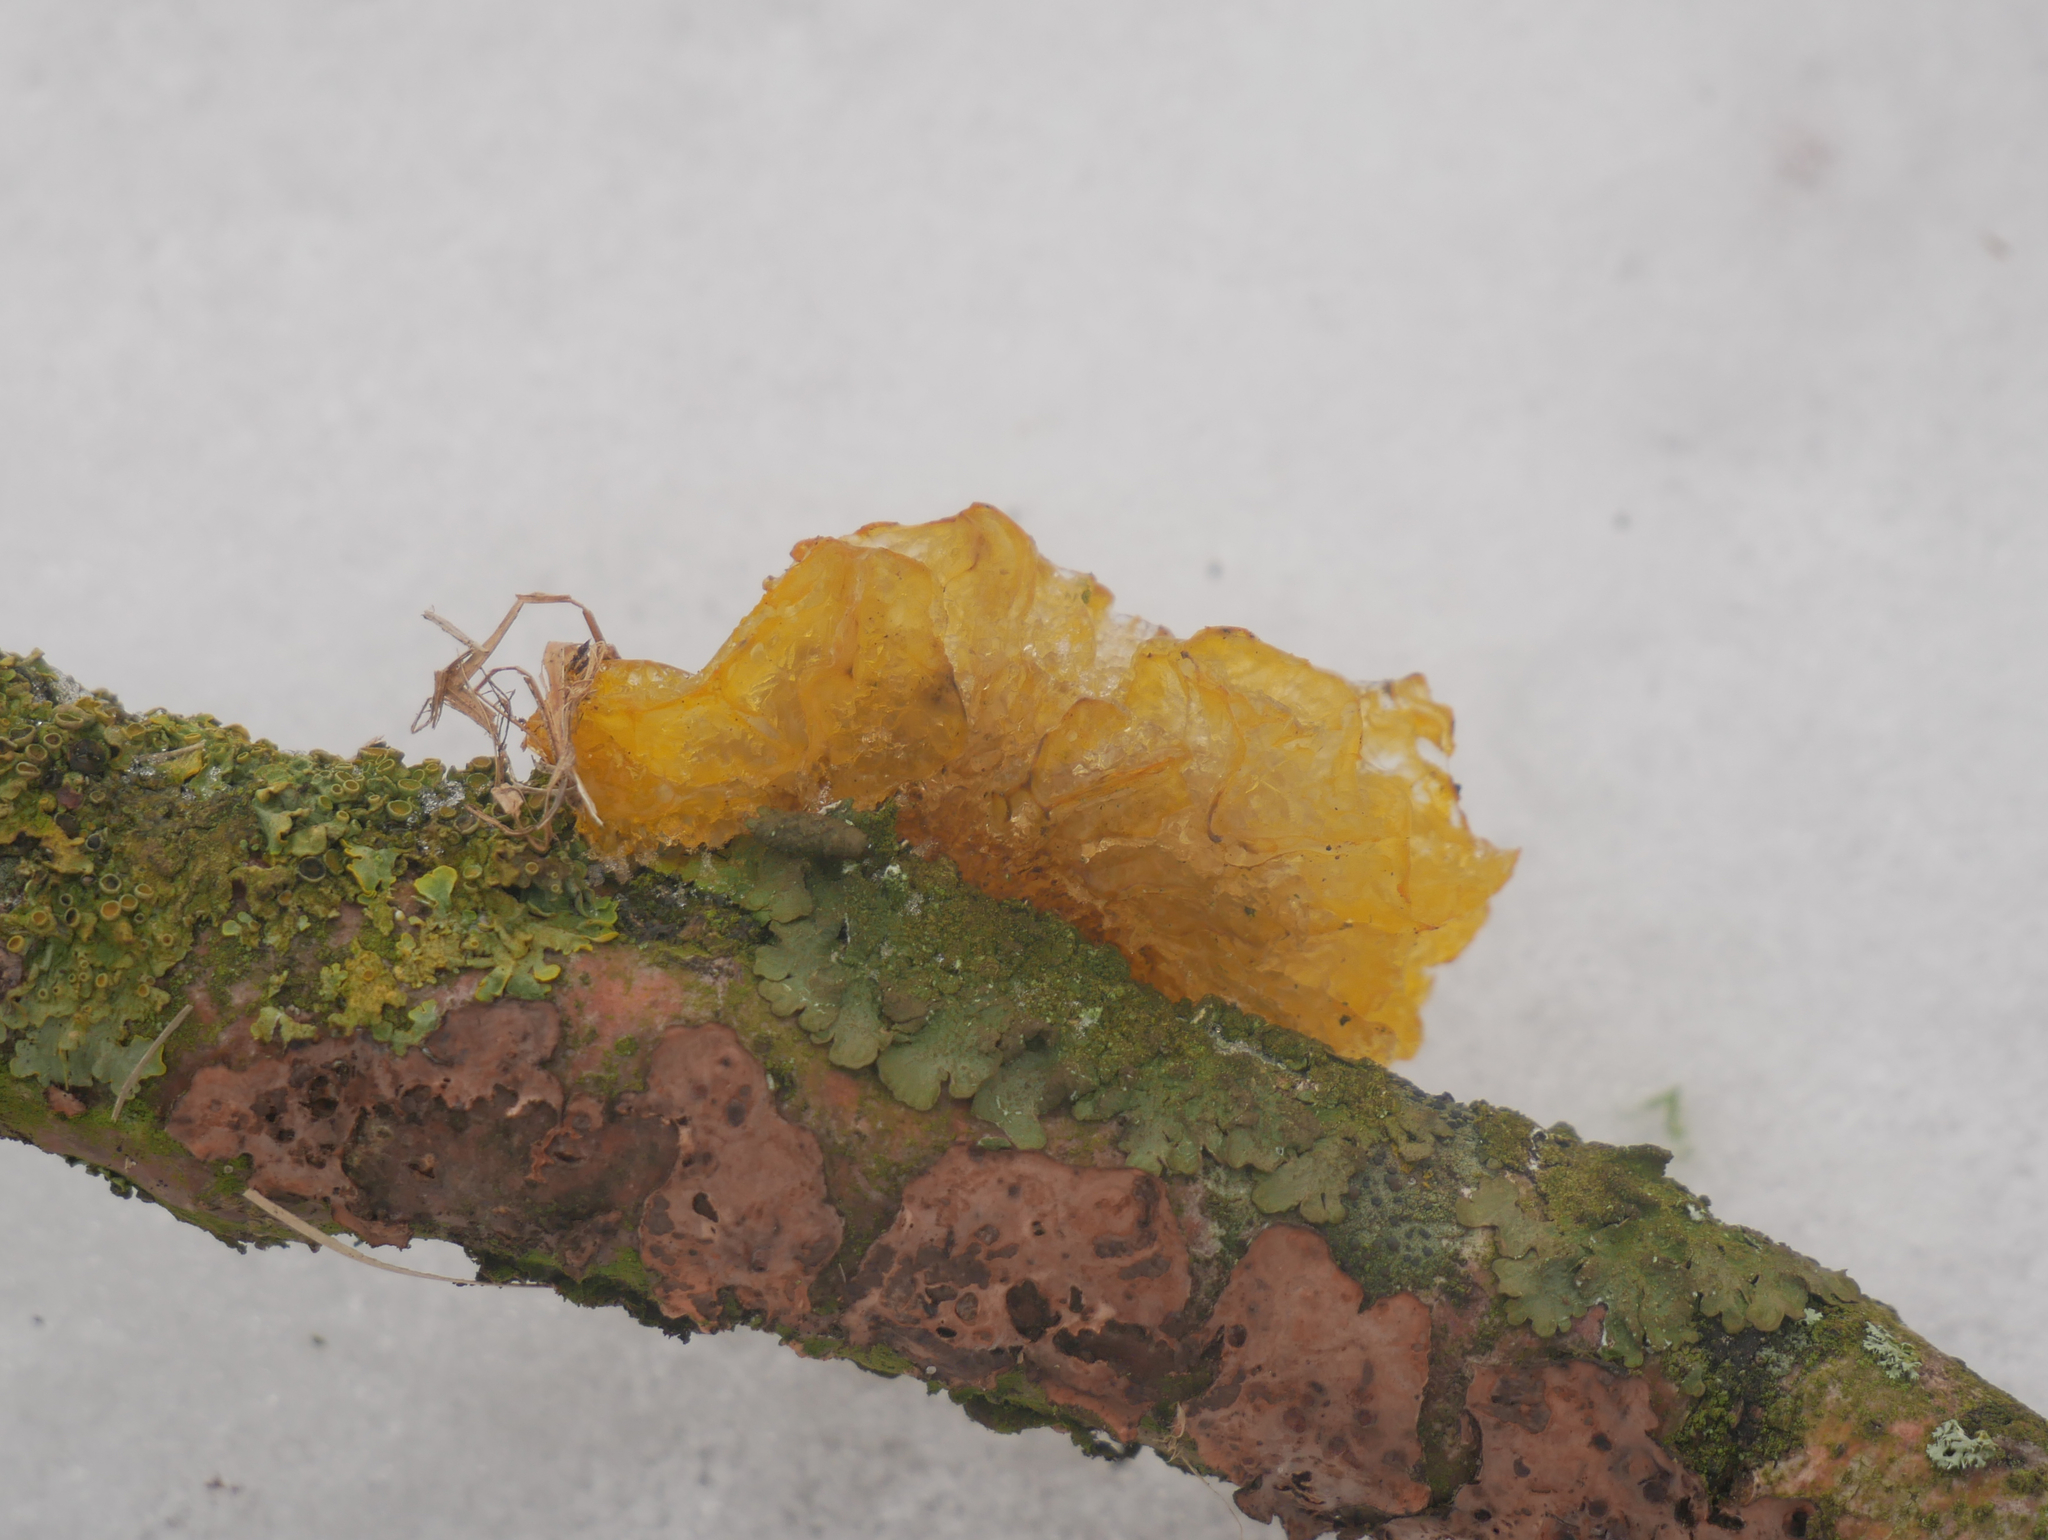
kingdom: Fungi
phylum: Basidiomycota
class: Tremellomycetes
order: Tremellales
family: Tremellaceae
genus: Tremella
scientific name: Tremella mesenterica
